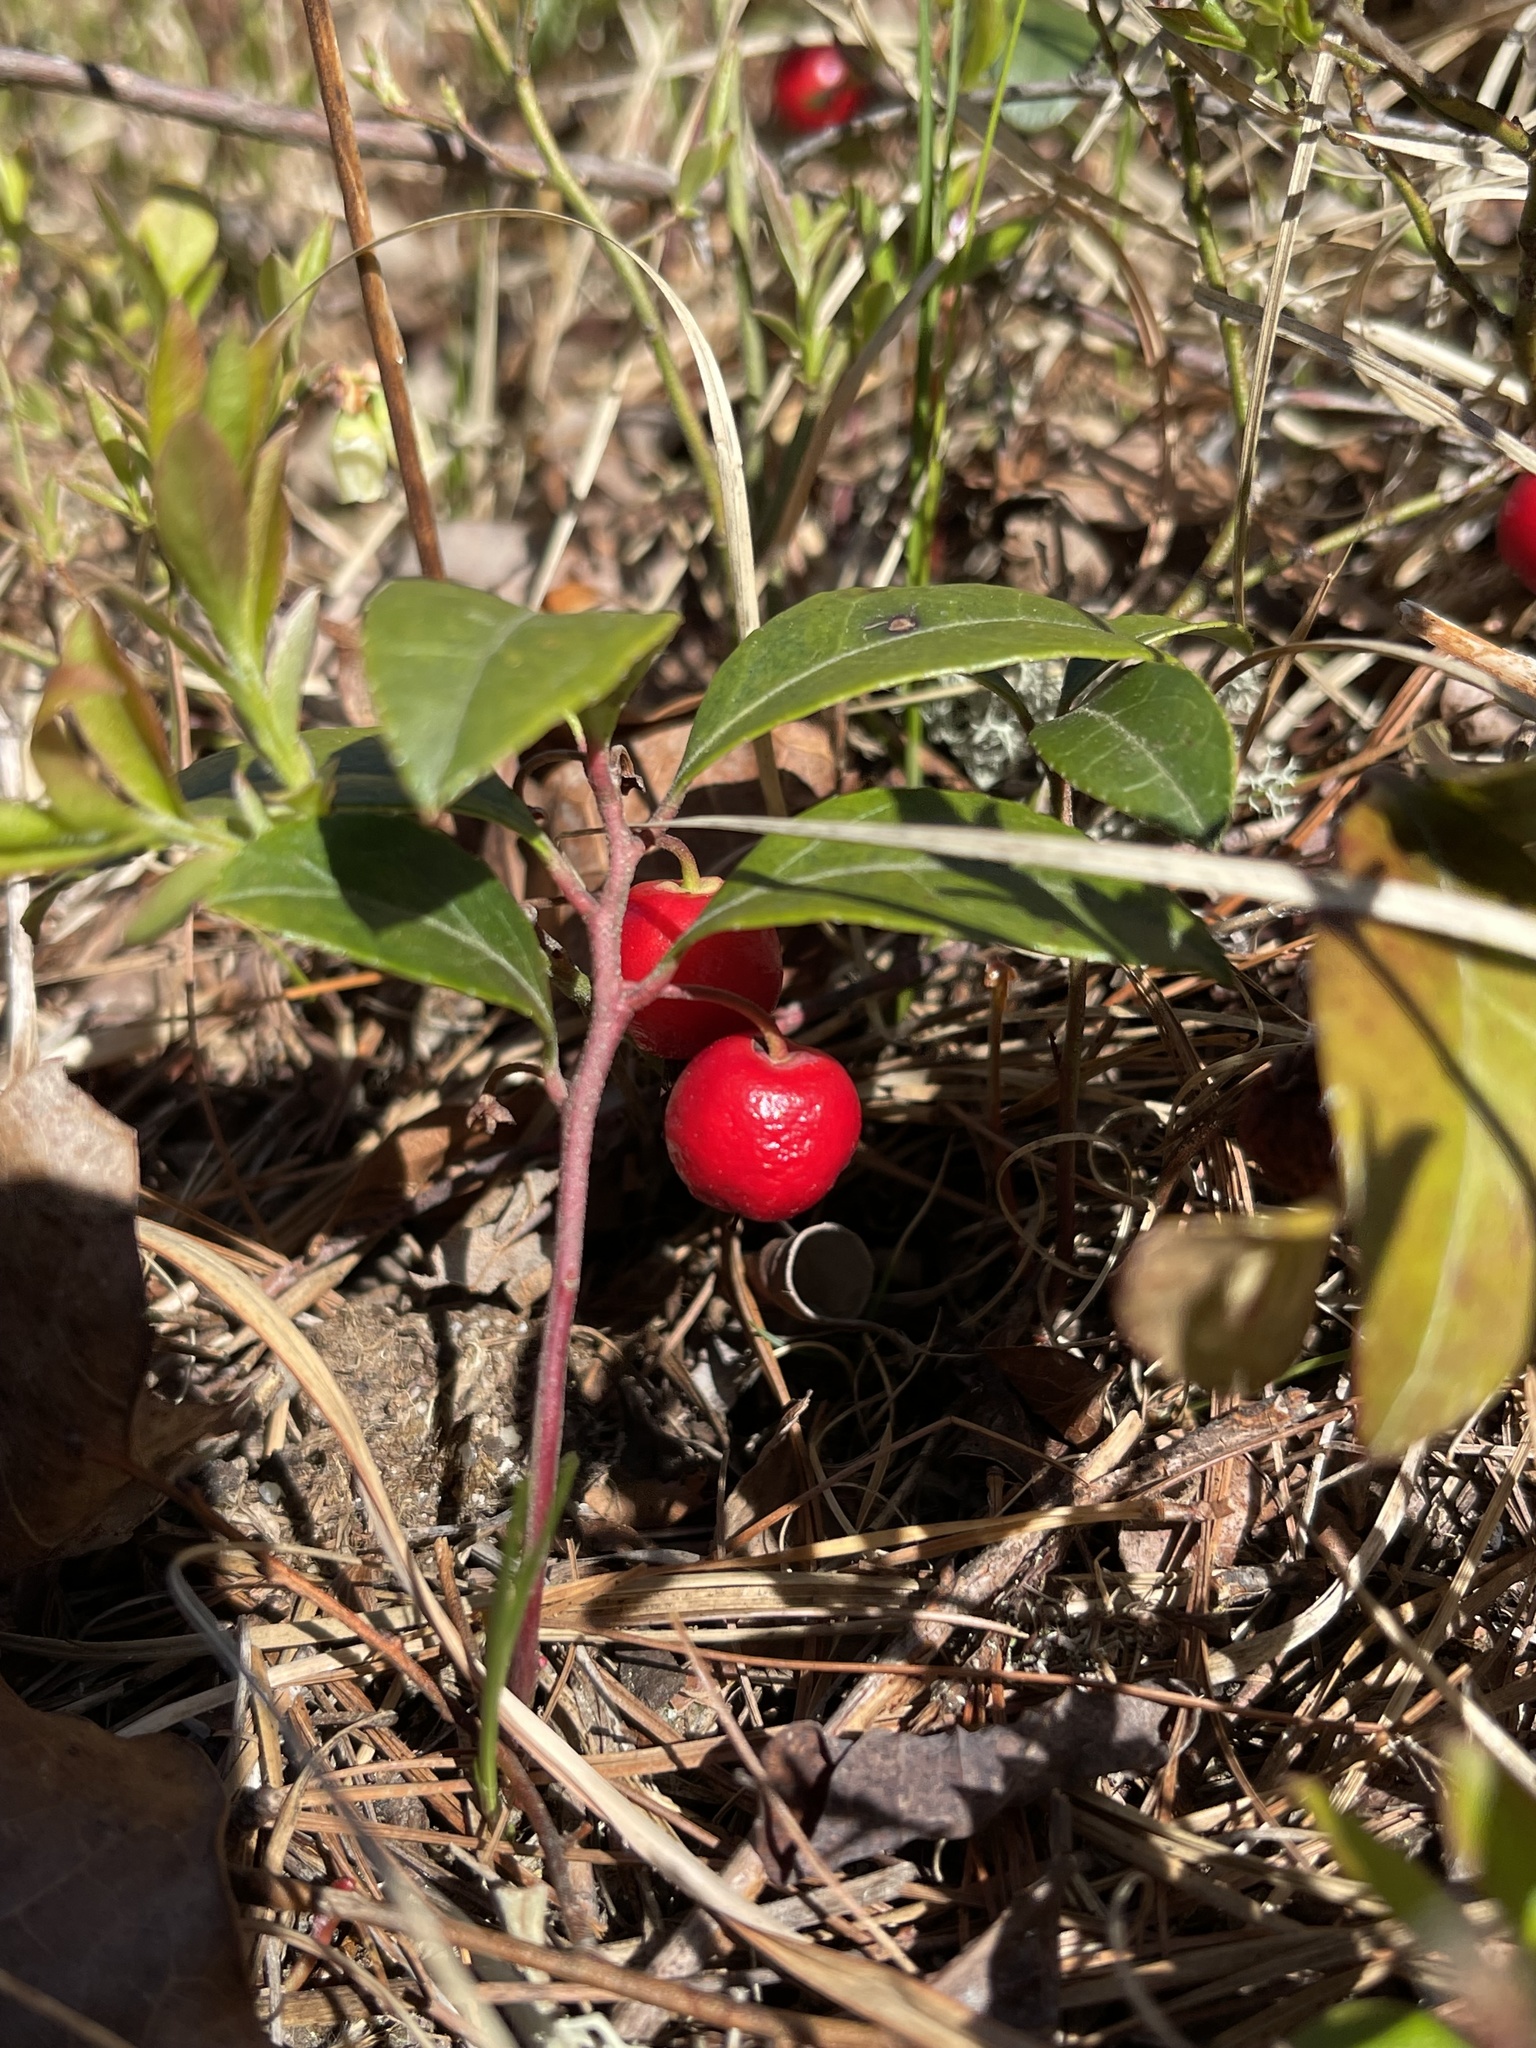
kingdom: Plantae
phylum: Tracheophyta
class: Magnoliopsida
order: Ericales
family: Ericaceae
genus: Gaultheria
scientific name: Gaultheria procumbens
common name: Checkerberry
